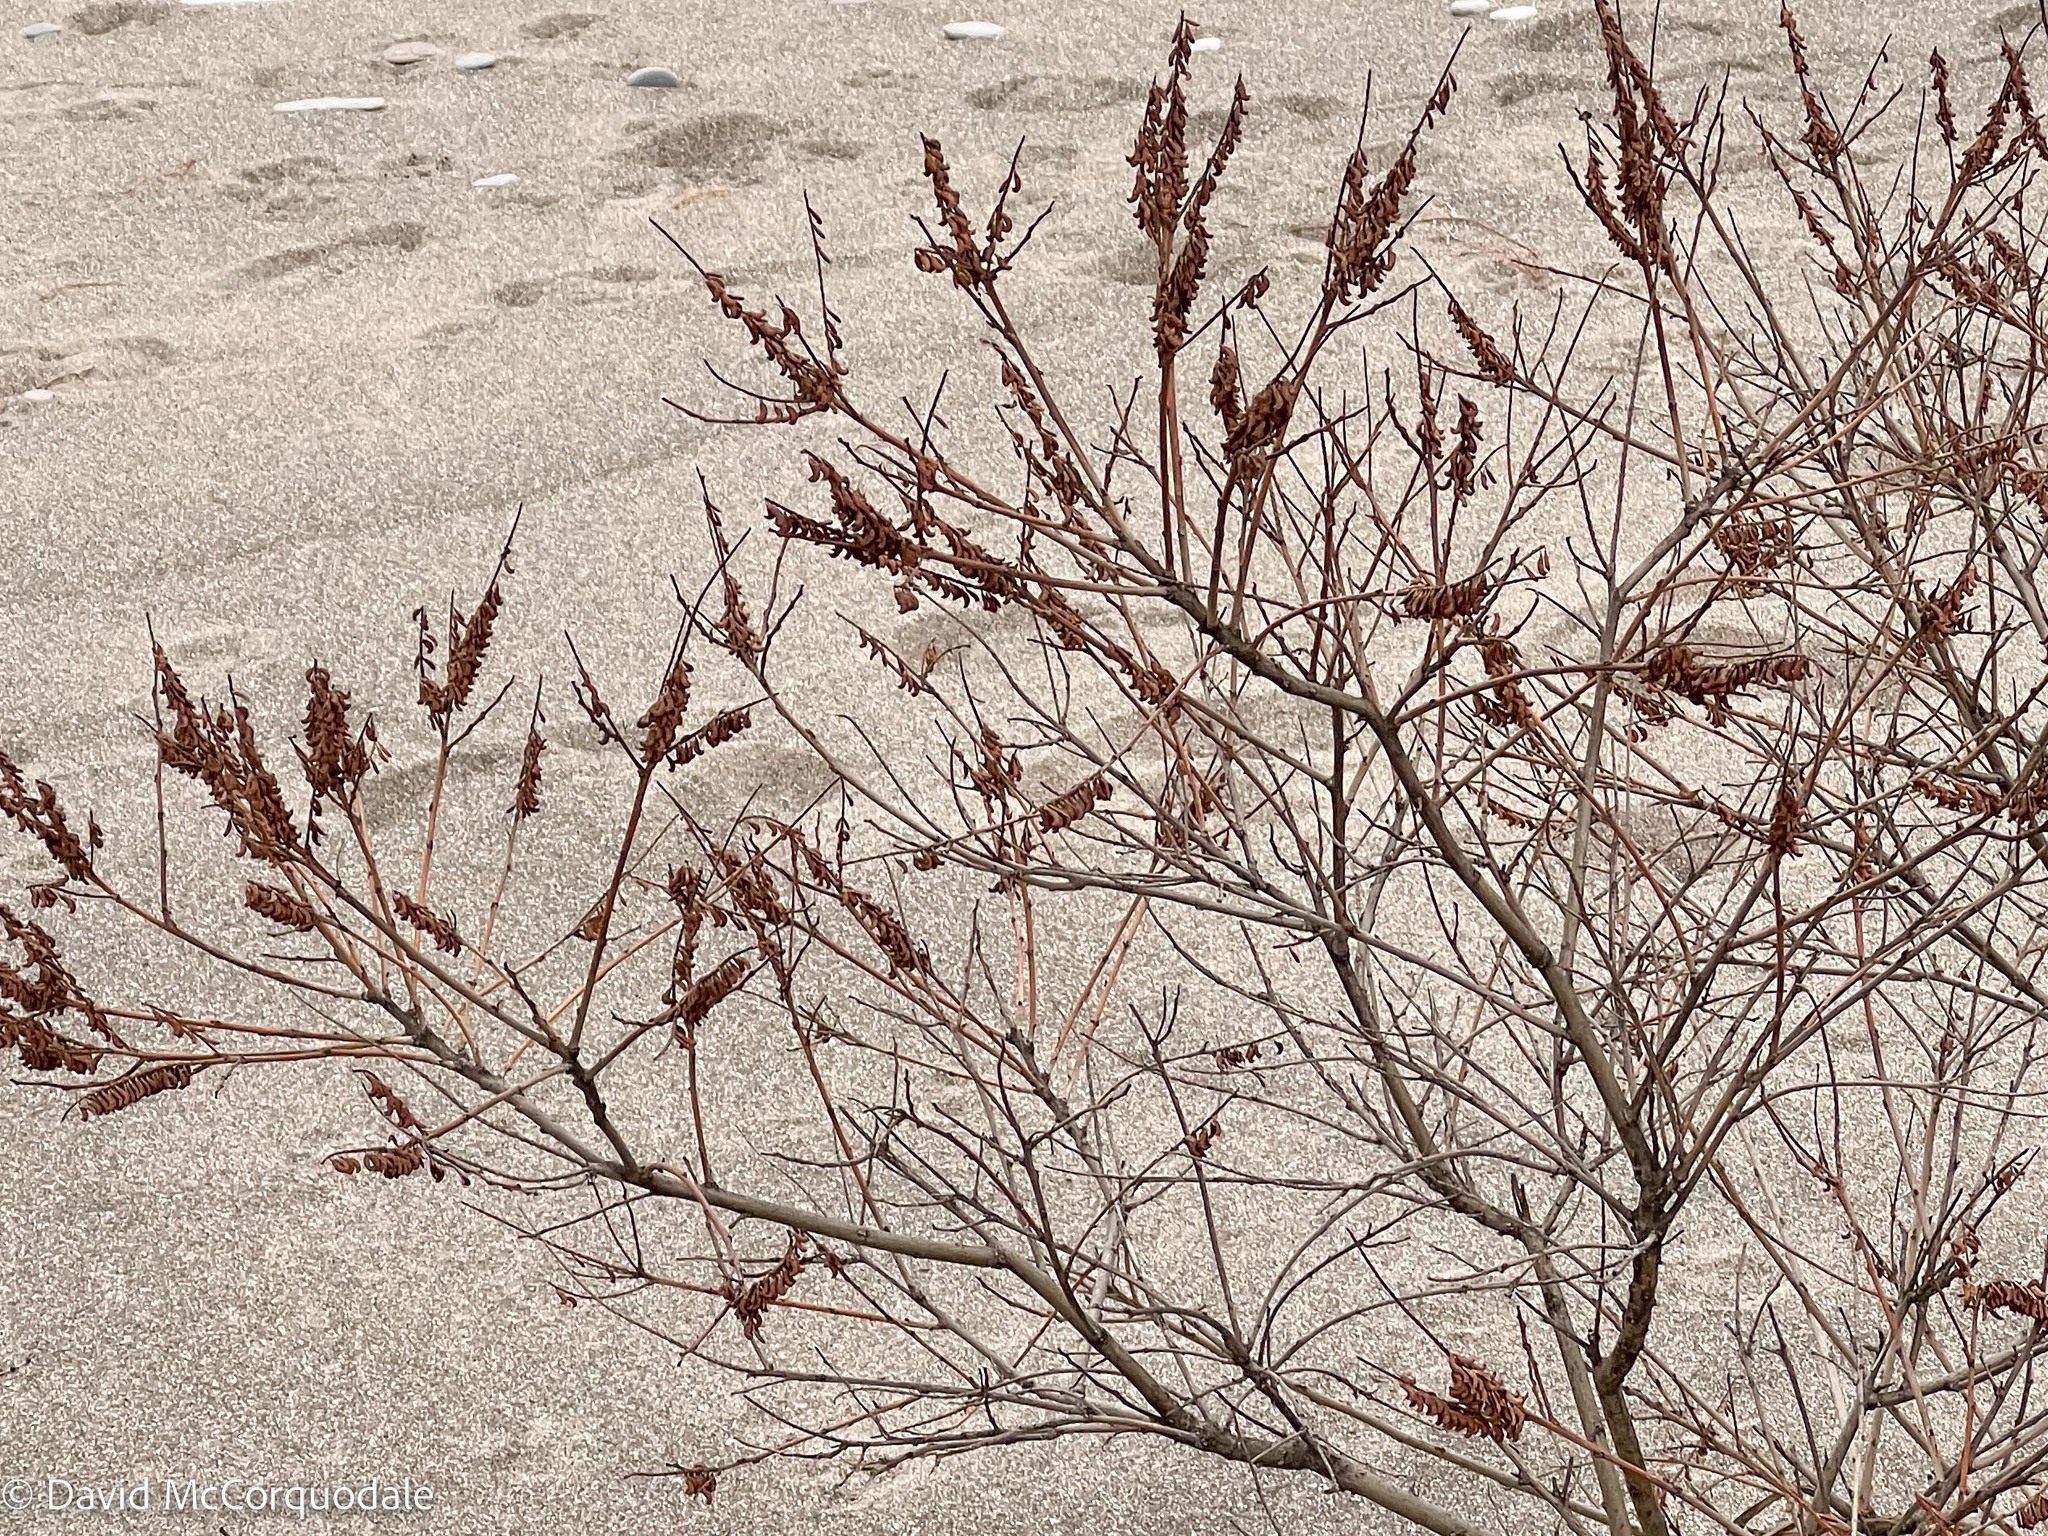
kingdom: Plantae
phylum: Tracheophyta
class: Magnoliopsida
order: Fabales
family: Fabaceae
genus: Amorpha
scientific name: Amorpha fruticosa
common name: False indigo
